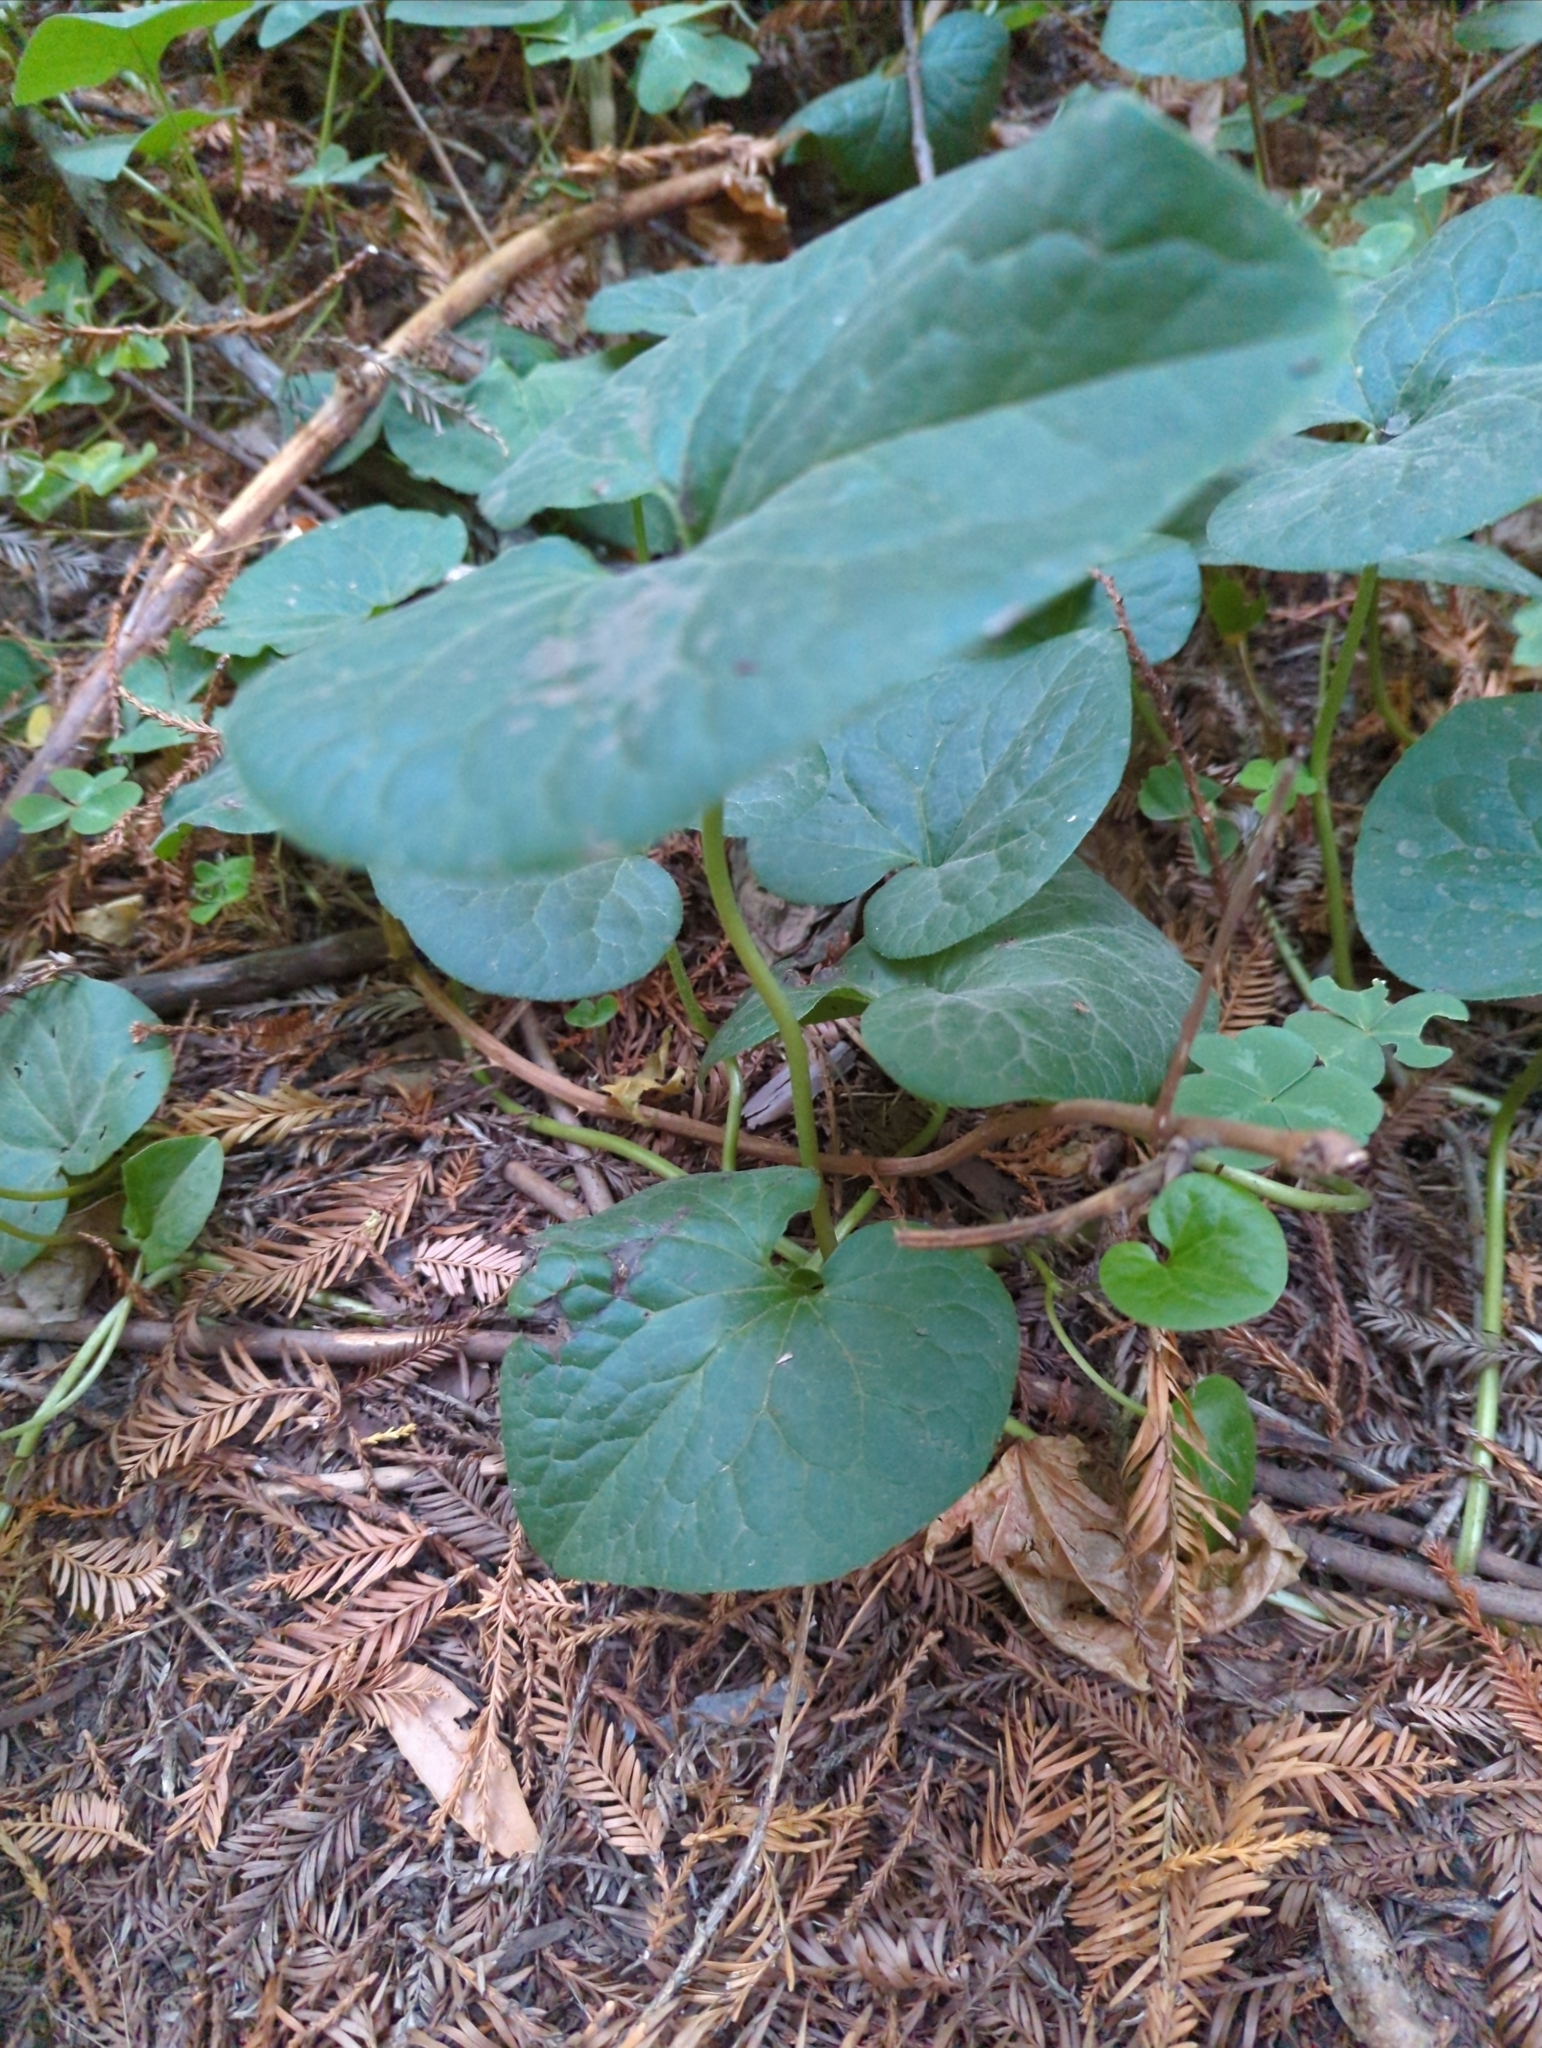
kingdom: Plantae
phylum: Tracheophyta
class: Magnoliopsida
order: Piperales
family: Aristolochiaceae
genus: Asarum
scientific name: Asarum caudatum
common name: Wild ginger
